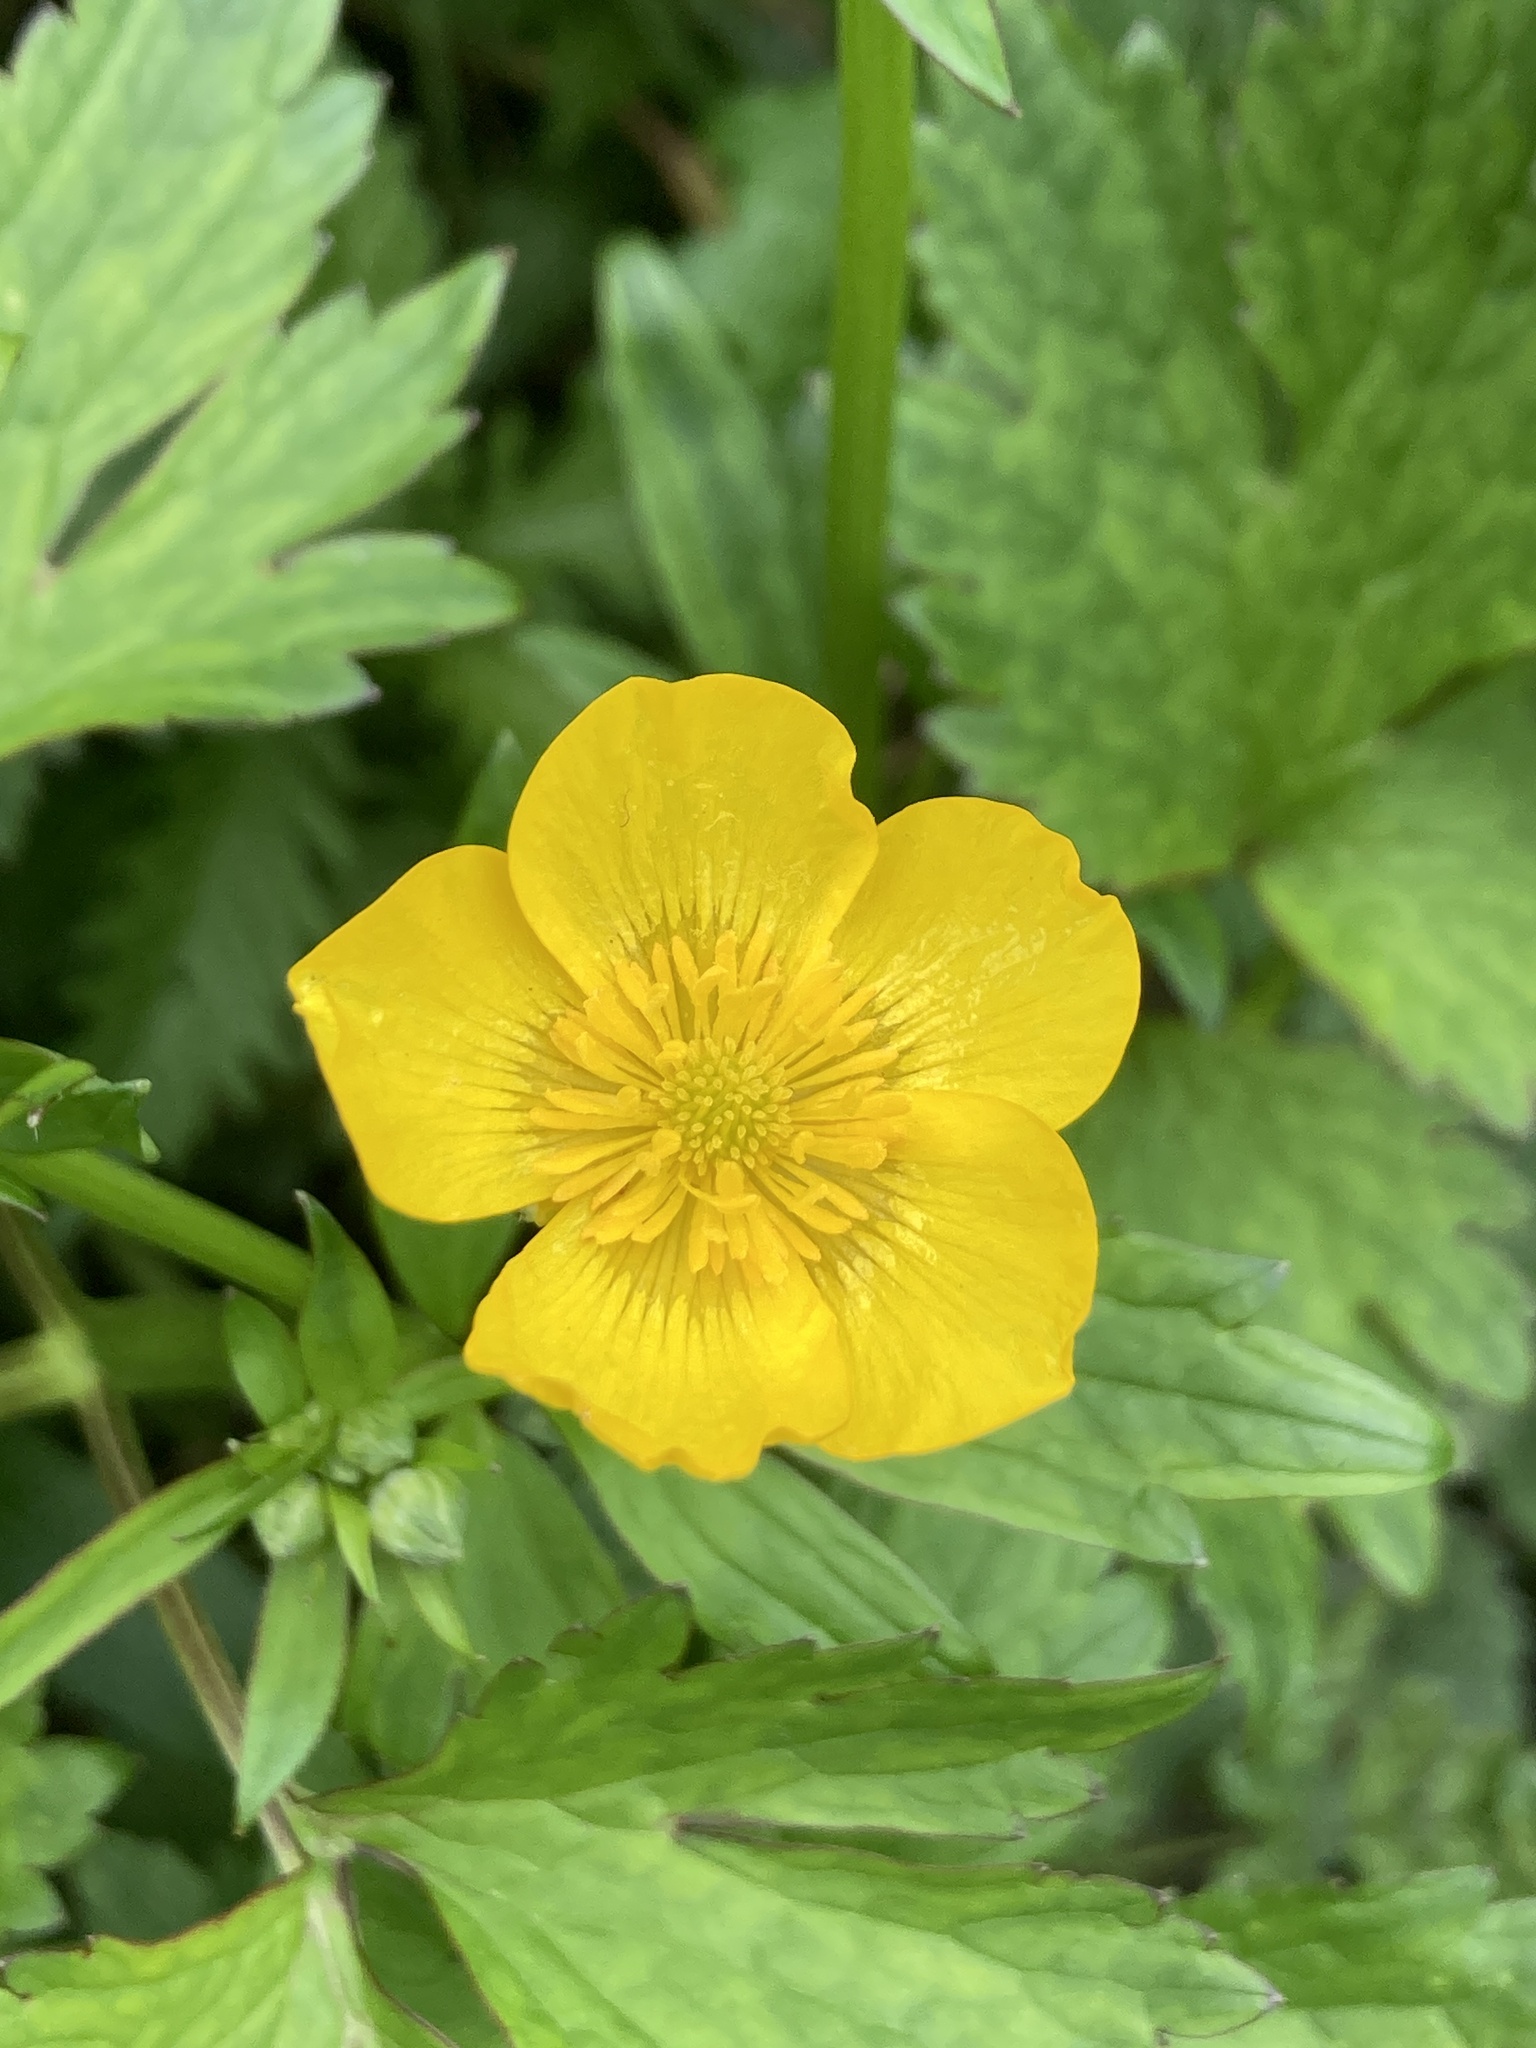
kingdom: Plantae
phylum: Tracheophyta
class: Magnoliopsida
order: Ranunculales
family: Ranunculaceae
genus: Ranunculus
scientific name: Ranunculus repens
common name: Creeping buttercup
